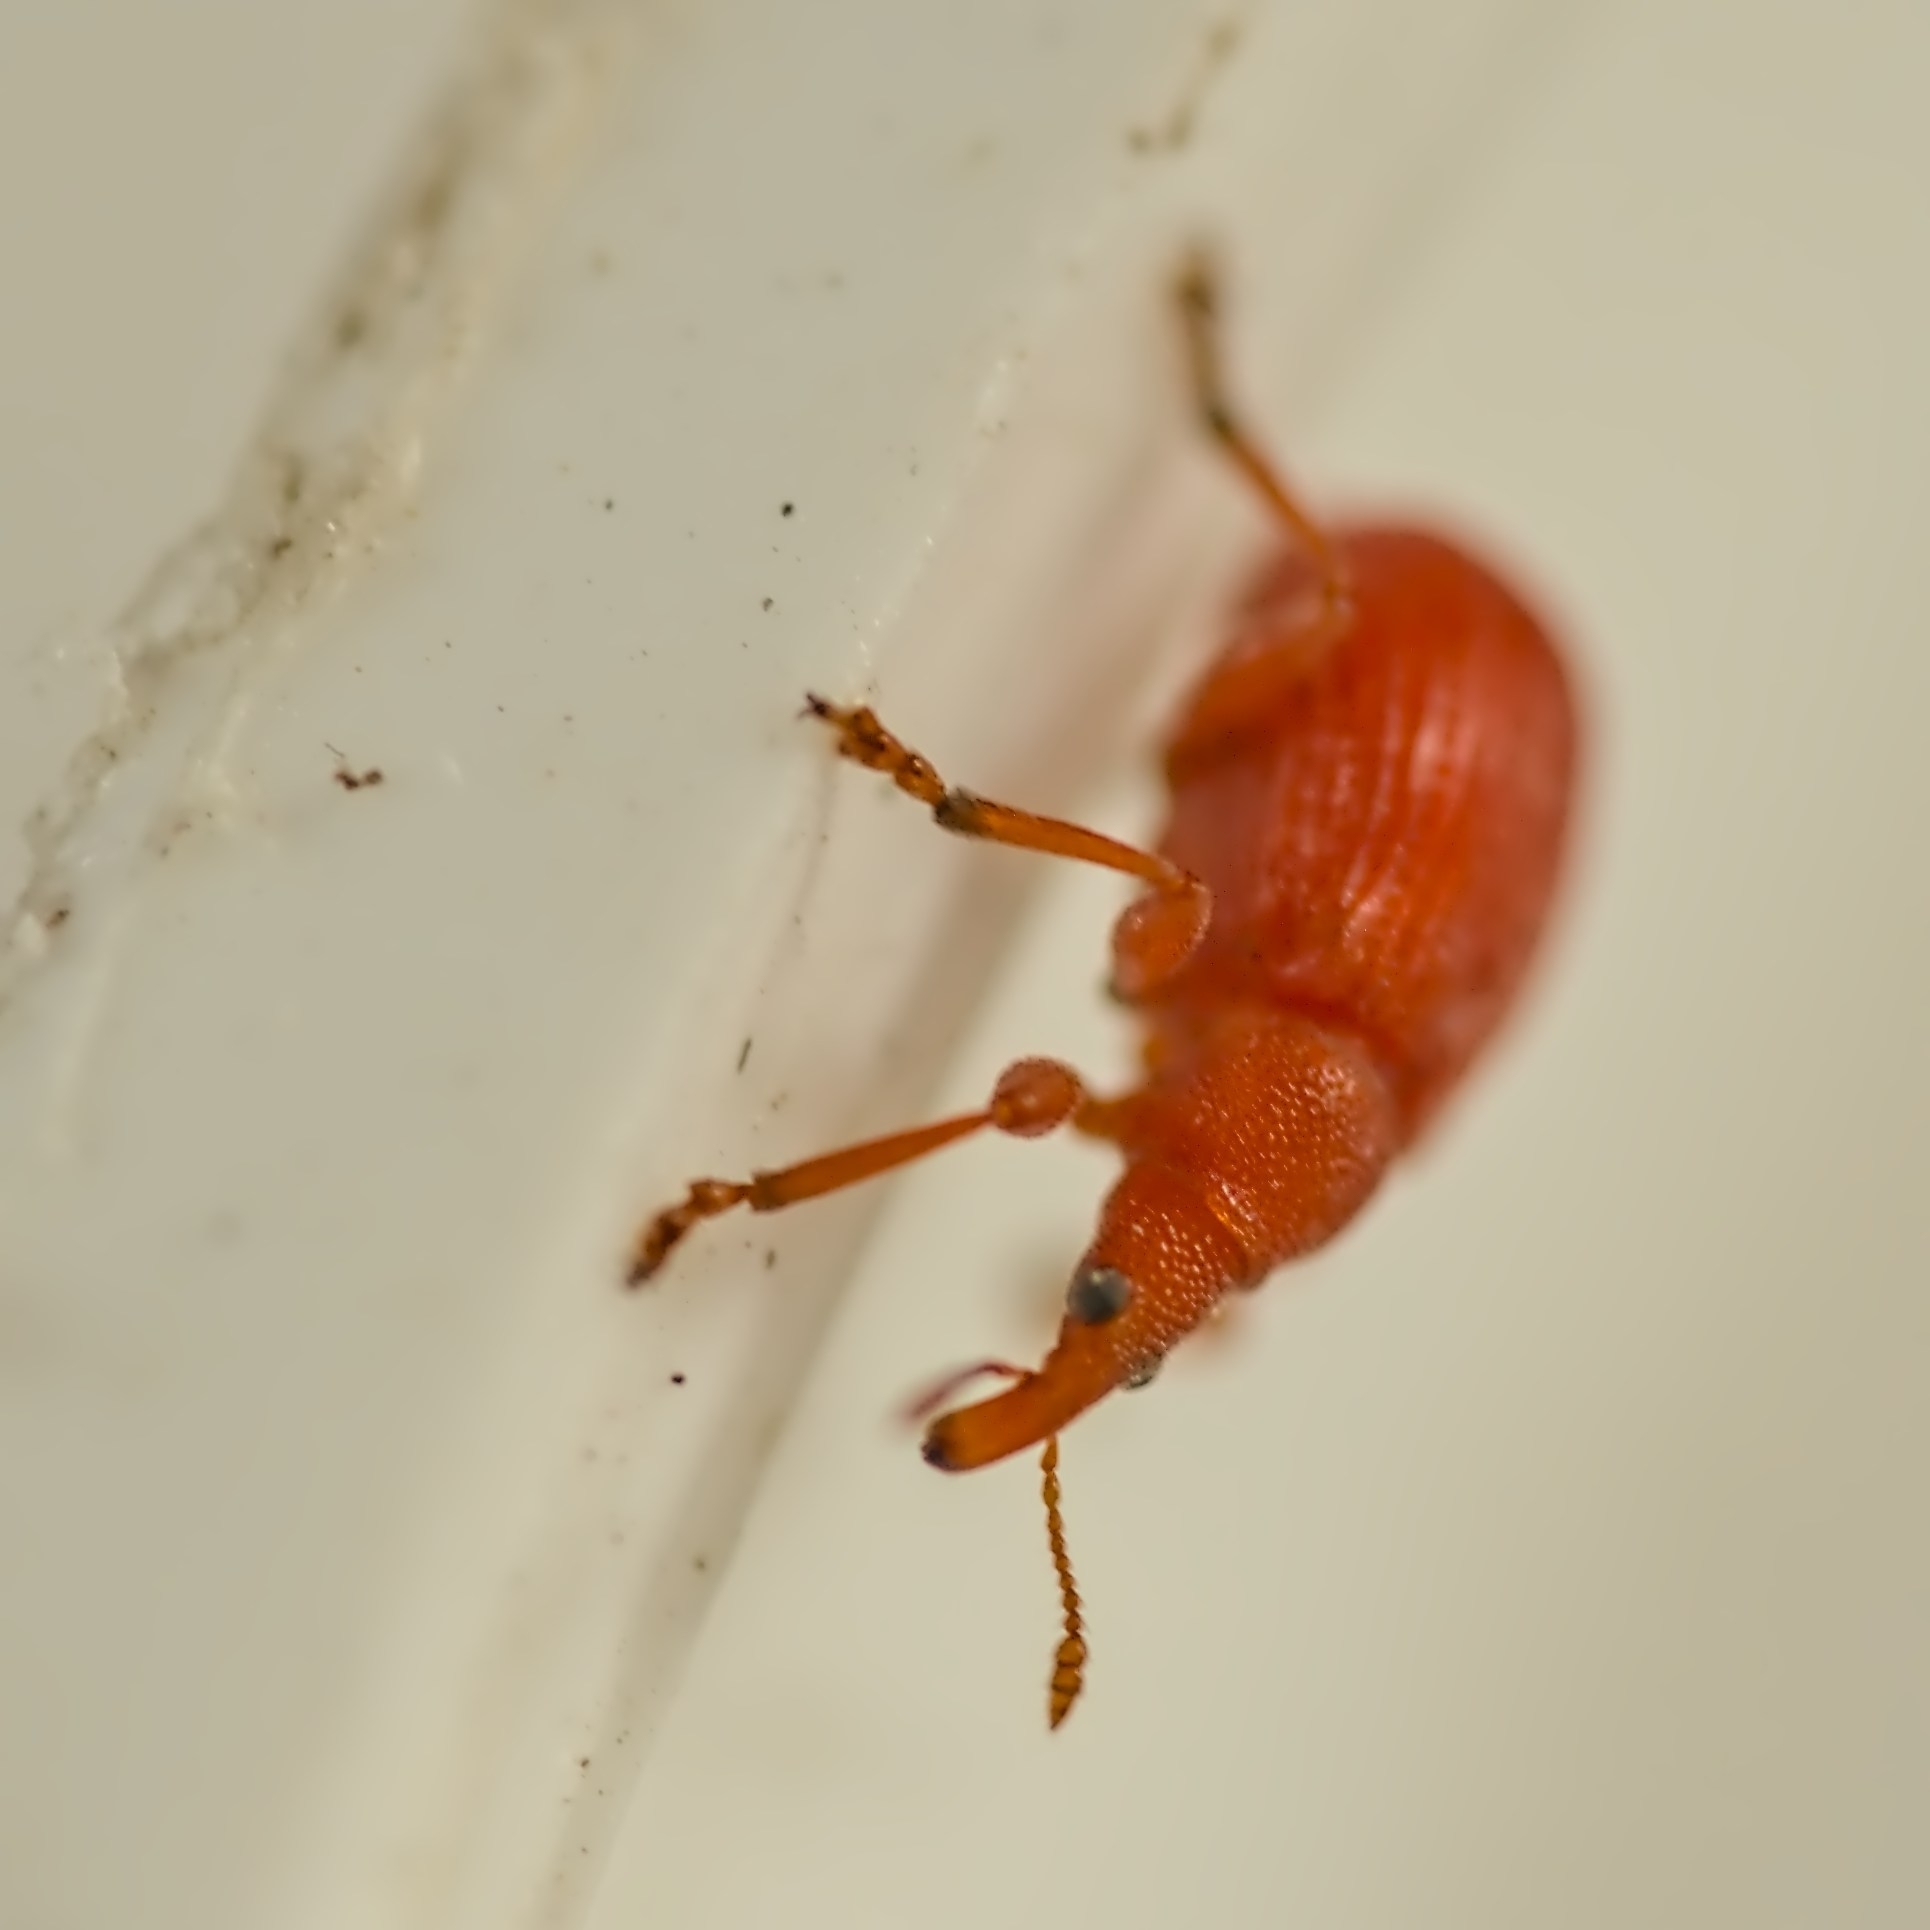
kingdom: Animalia
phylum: Arthropoda
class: Insecta
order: Coleoptera
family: Apionidae
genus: Apion
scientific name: Apion frumentarium
